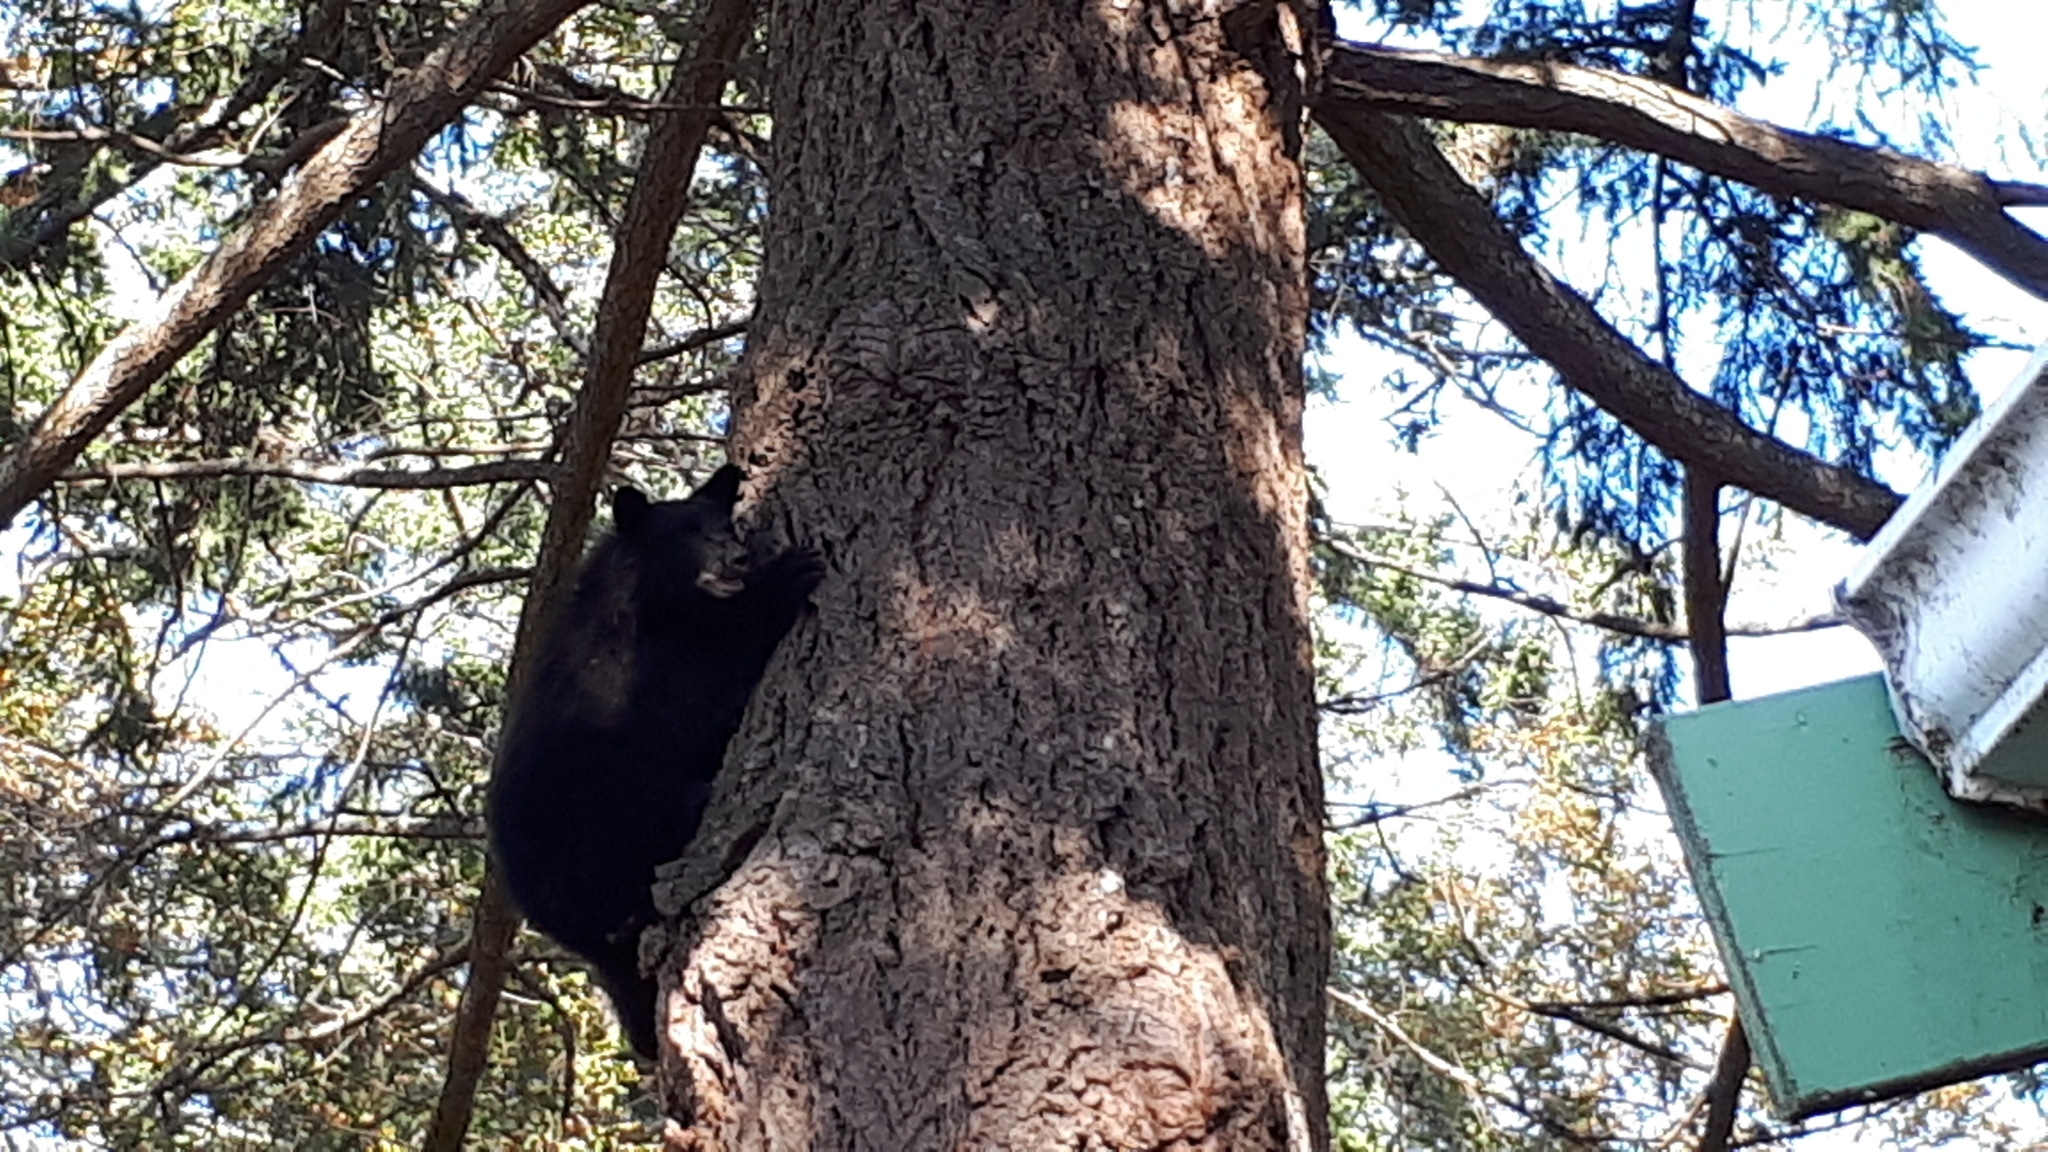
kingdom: Animalia
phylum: Chordata
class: Mammalia
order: Carnivora
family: Ursidae
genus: Ursus
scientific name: Ursus americanus
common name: American black bear
